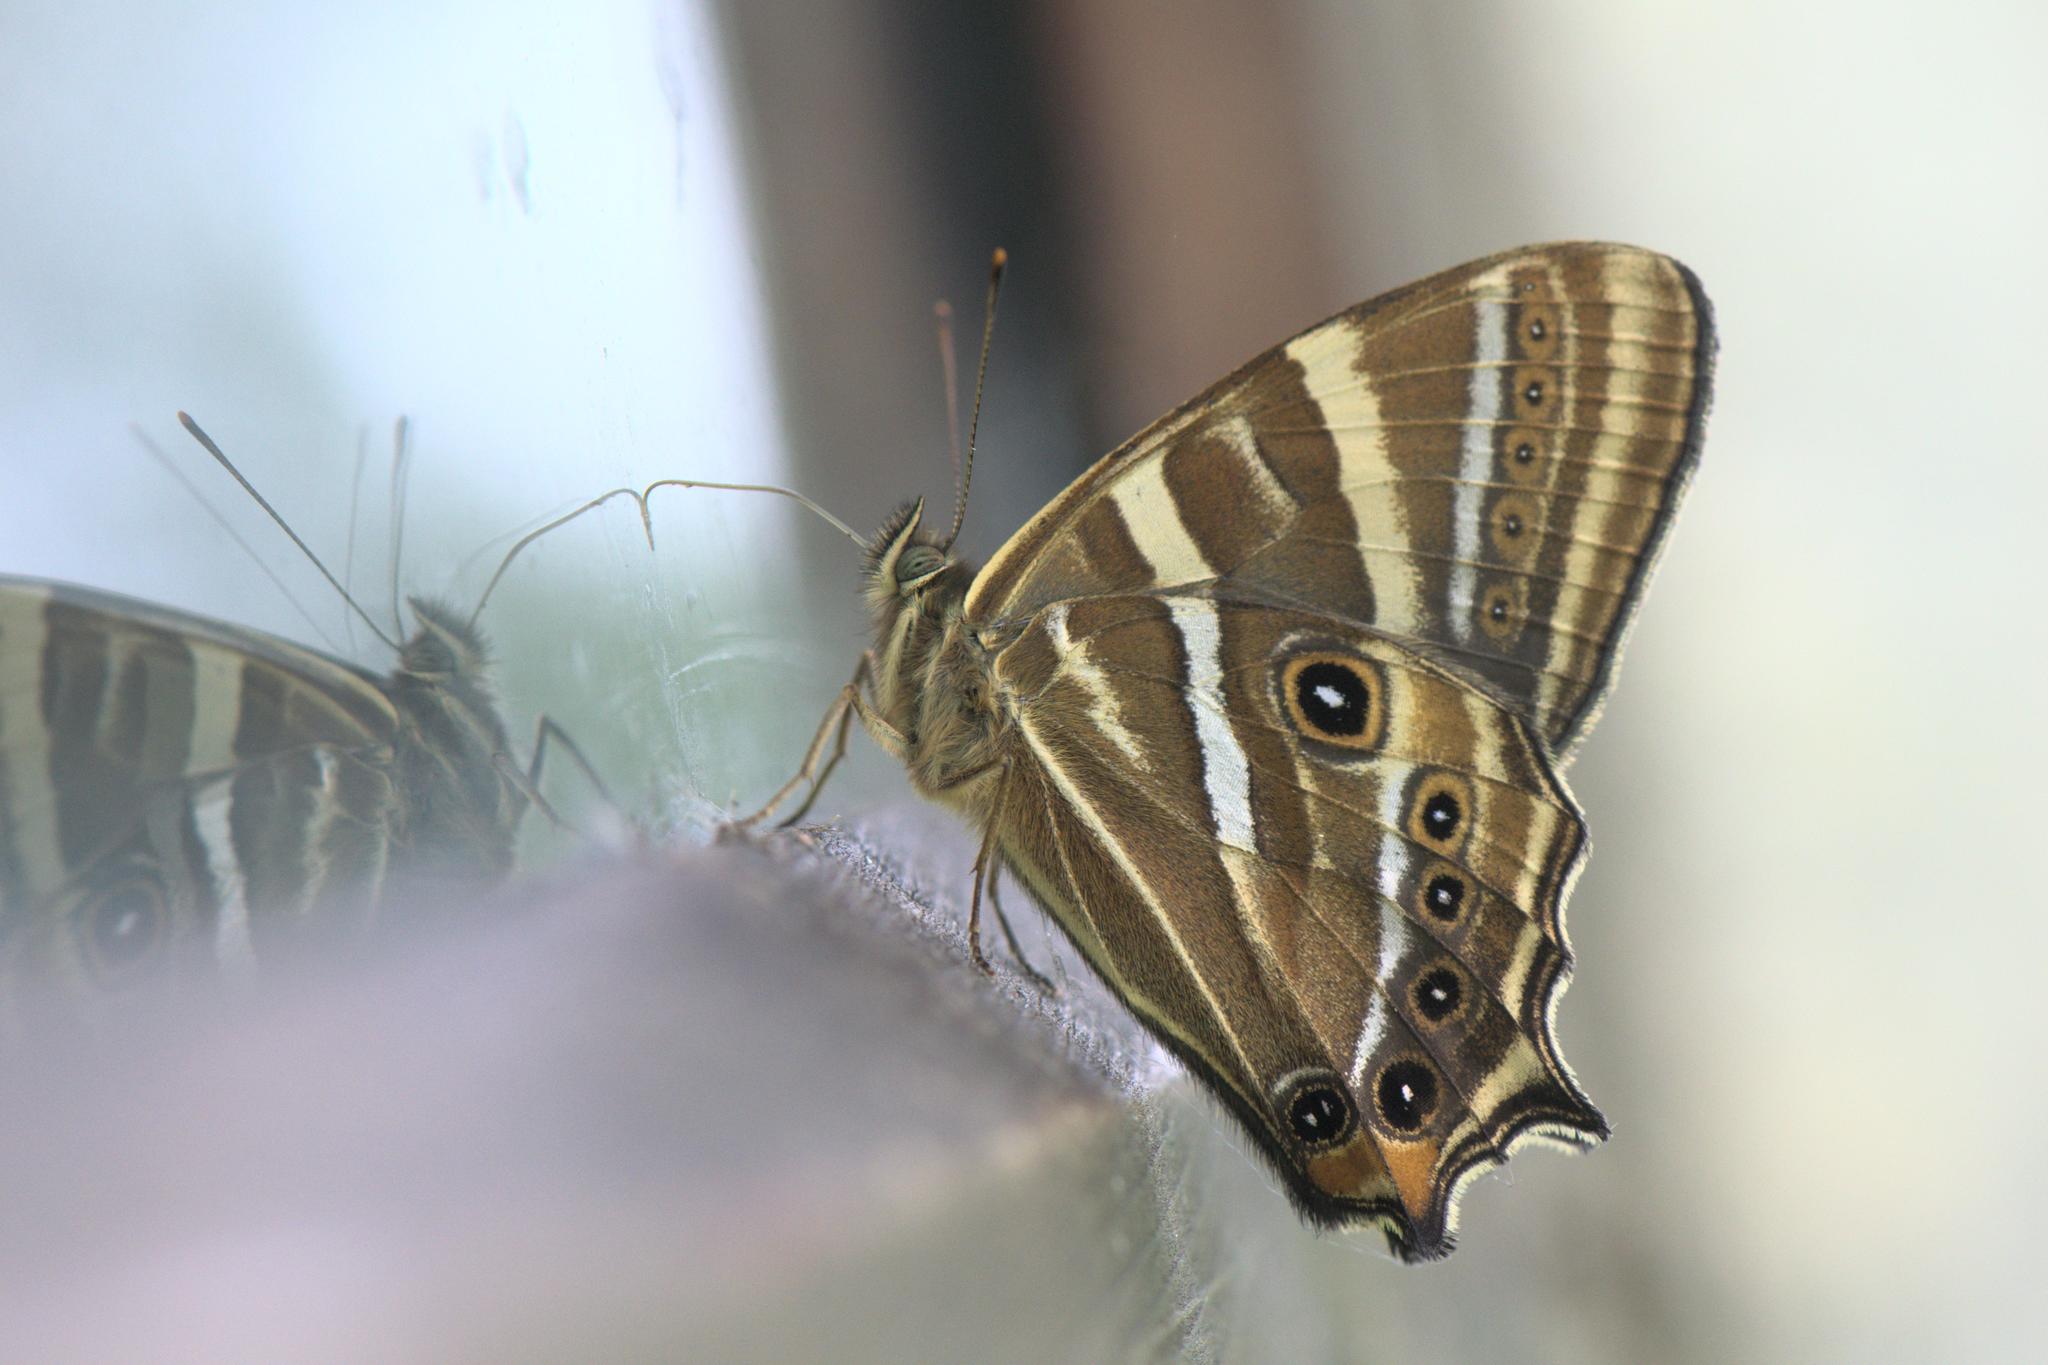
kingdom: Animalia
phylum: Arthropoda
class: Insecta
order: Lepidoptera
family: Nymphalidae
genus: Lethe
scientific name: Lethe baladeva
